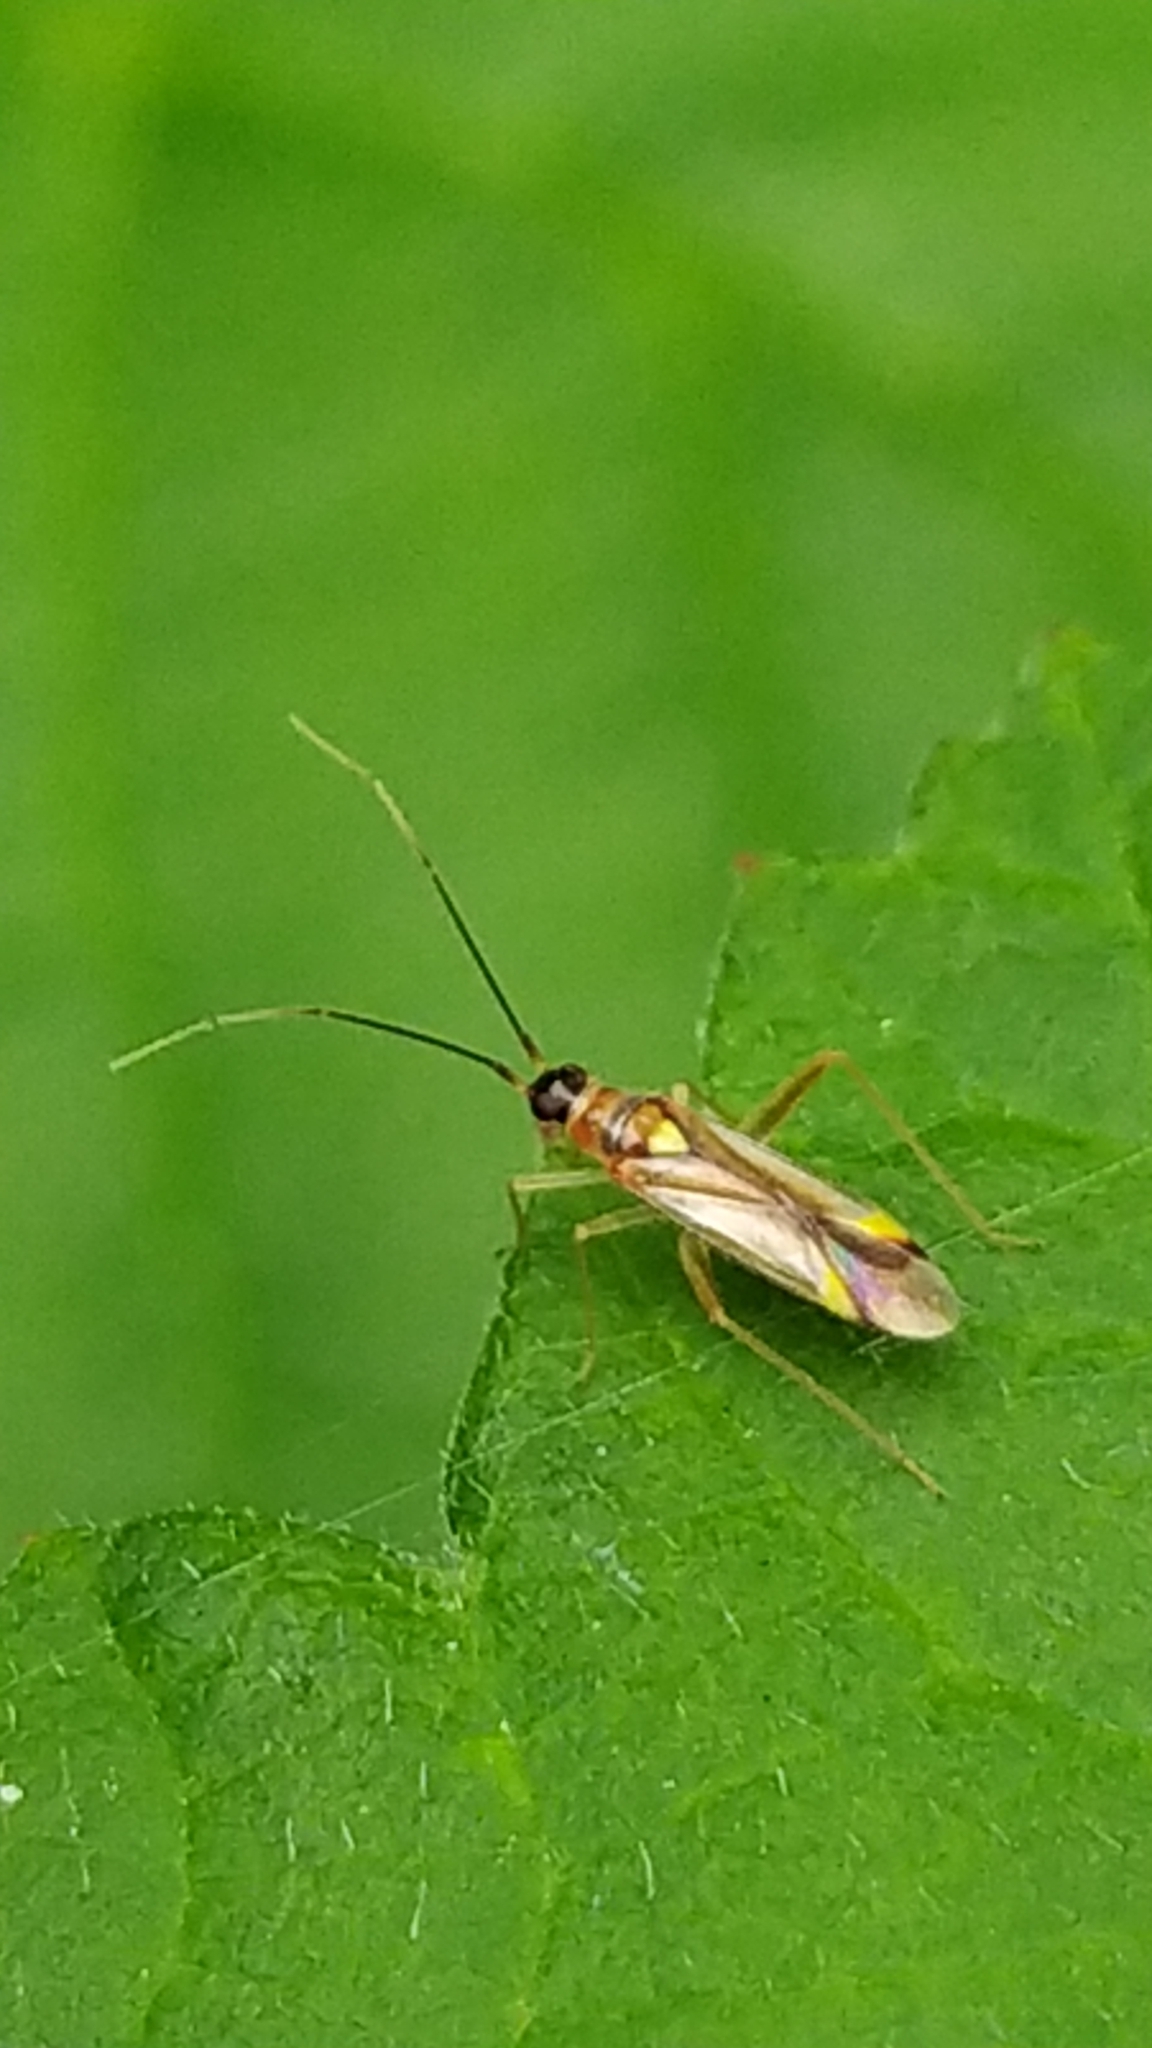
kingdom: Animalia
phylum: Arthropoda
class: Insecta
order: Hemiptera
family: Miridae
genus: Campyloneura
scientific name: Campyloneura virgula
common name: Predatory bug
